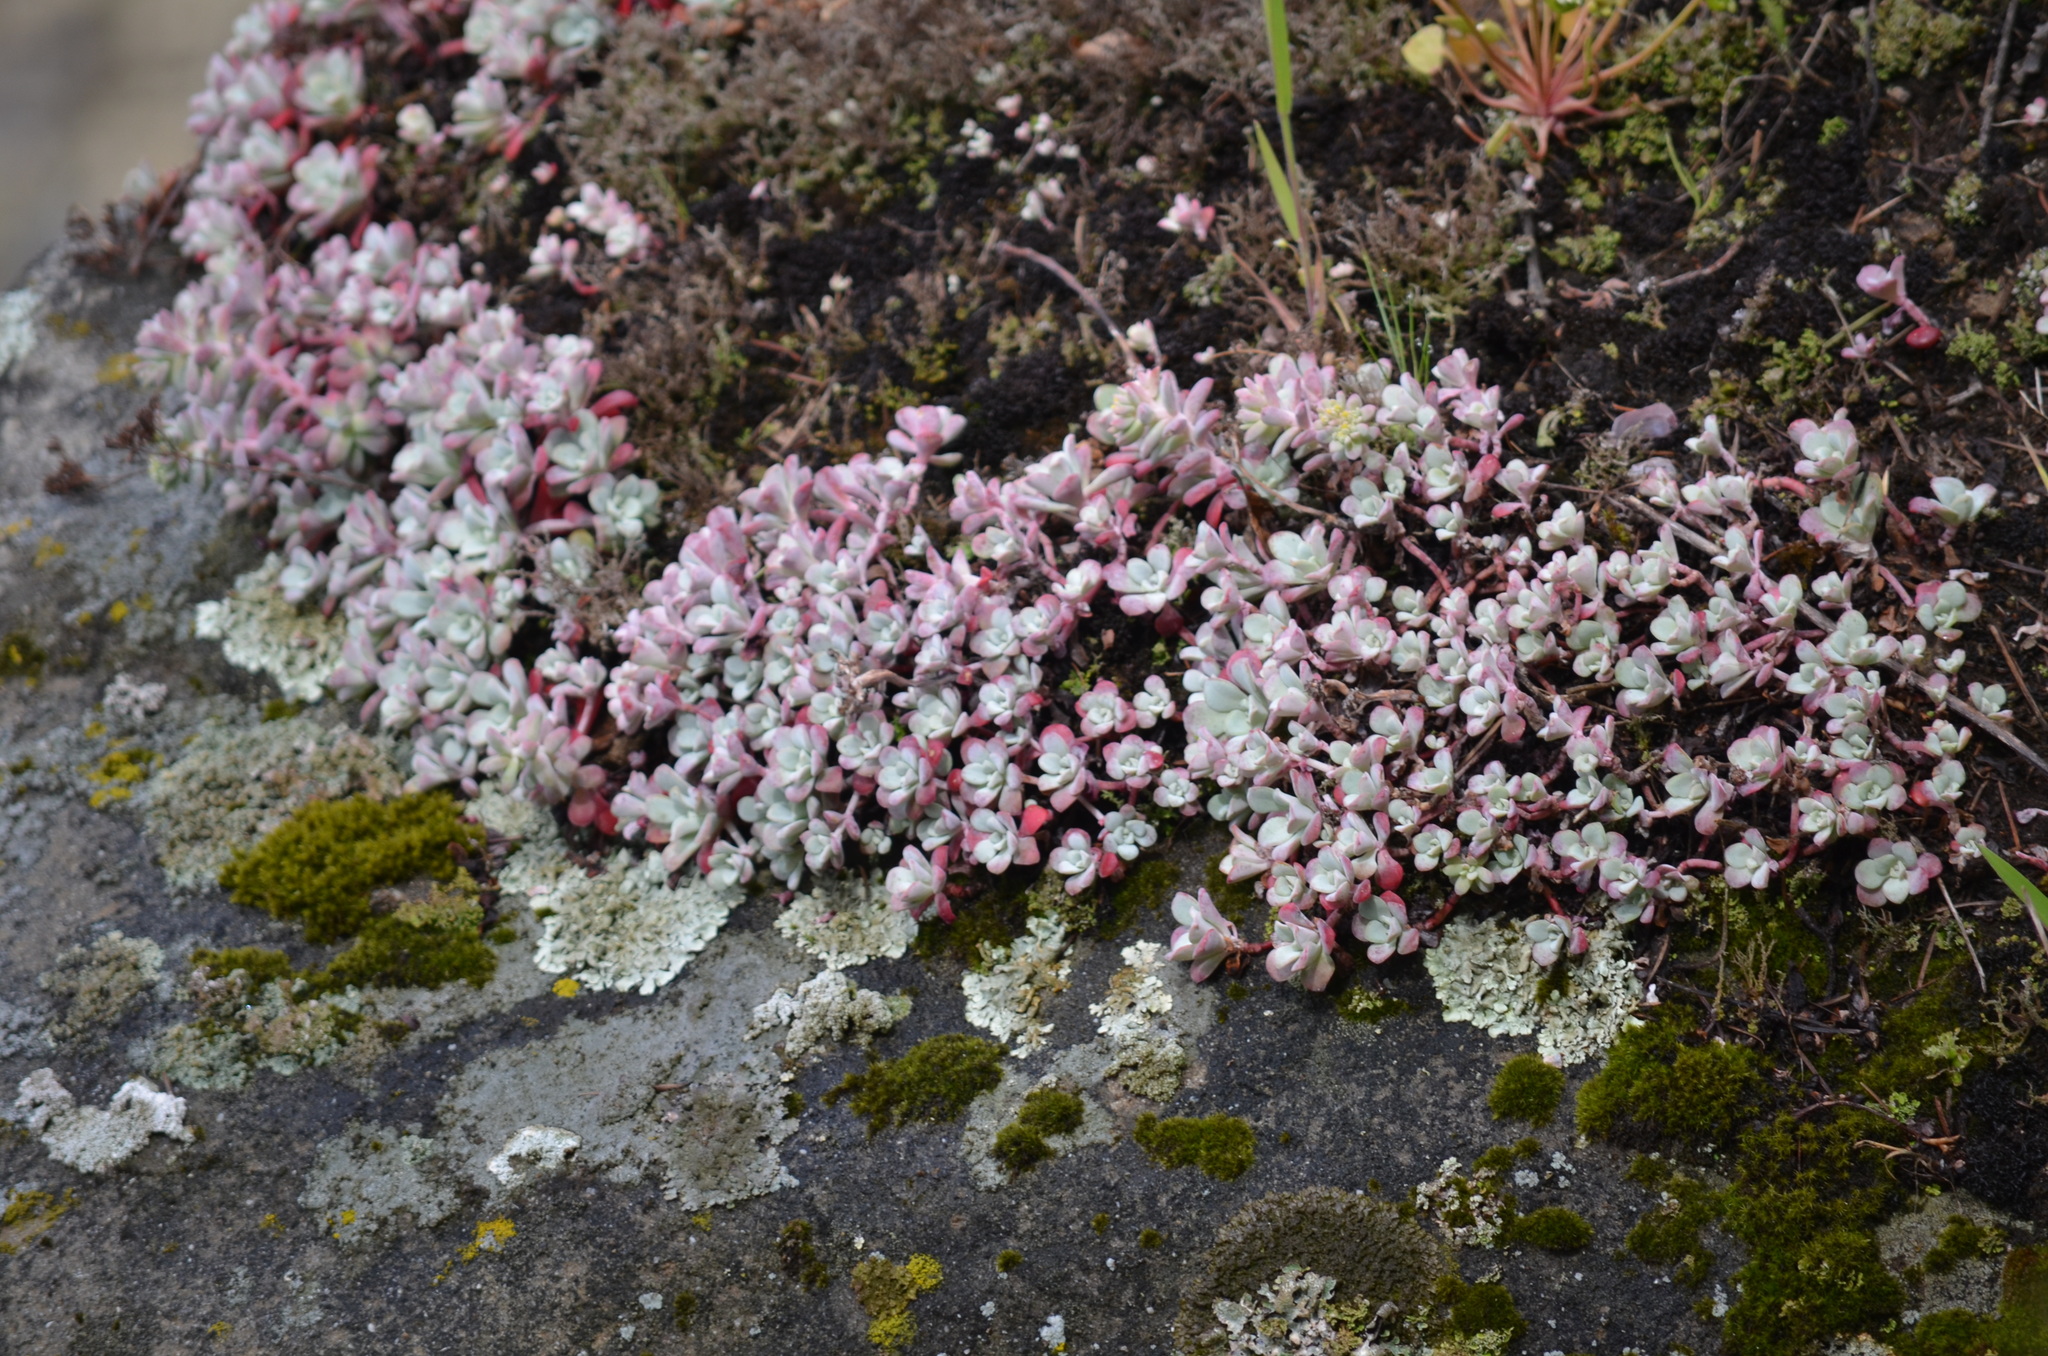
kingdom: Plantae
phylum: Tracheophyta
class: Magnoliopsida
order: Saxifragales
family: Crassulaceae
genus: Sedum
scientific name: Sedum spathulifolium
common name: Colorado stonecrop
